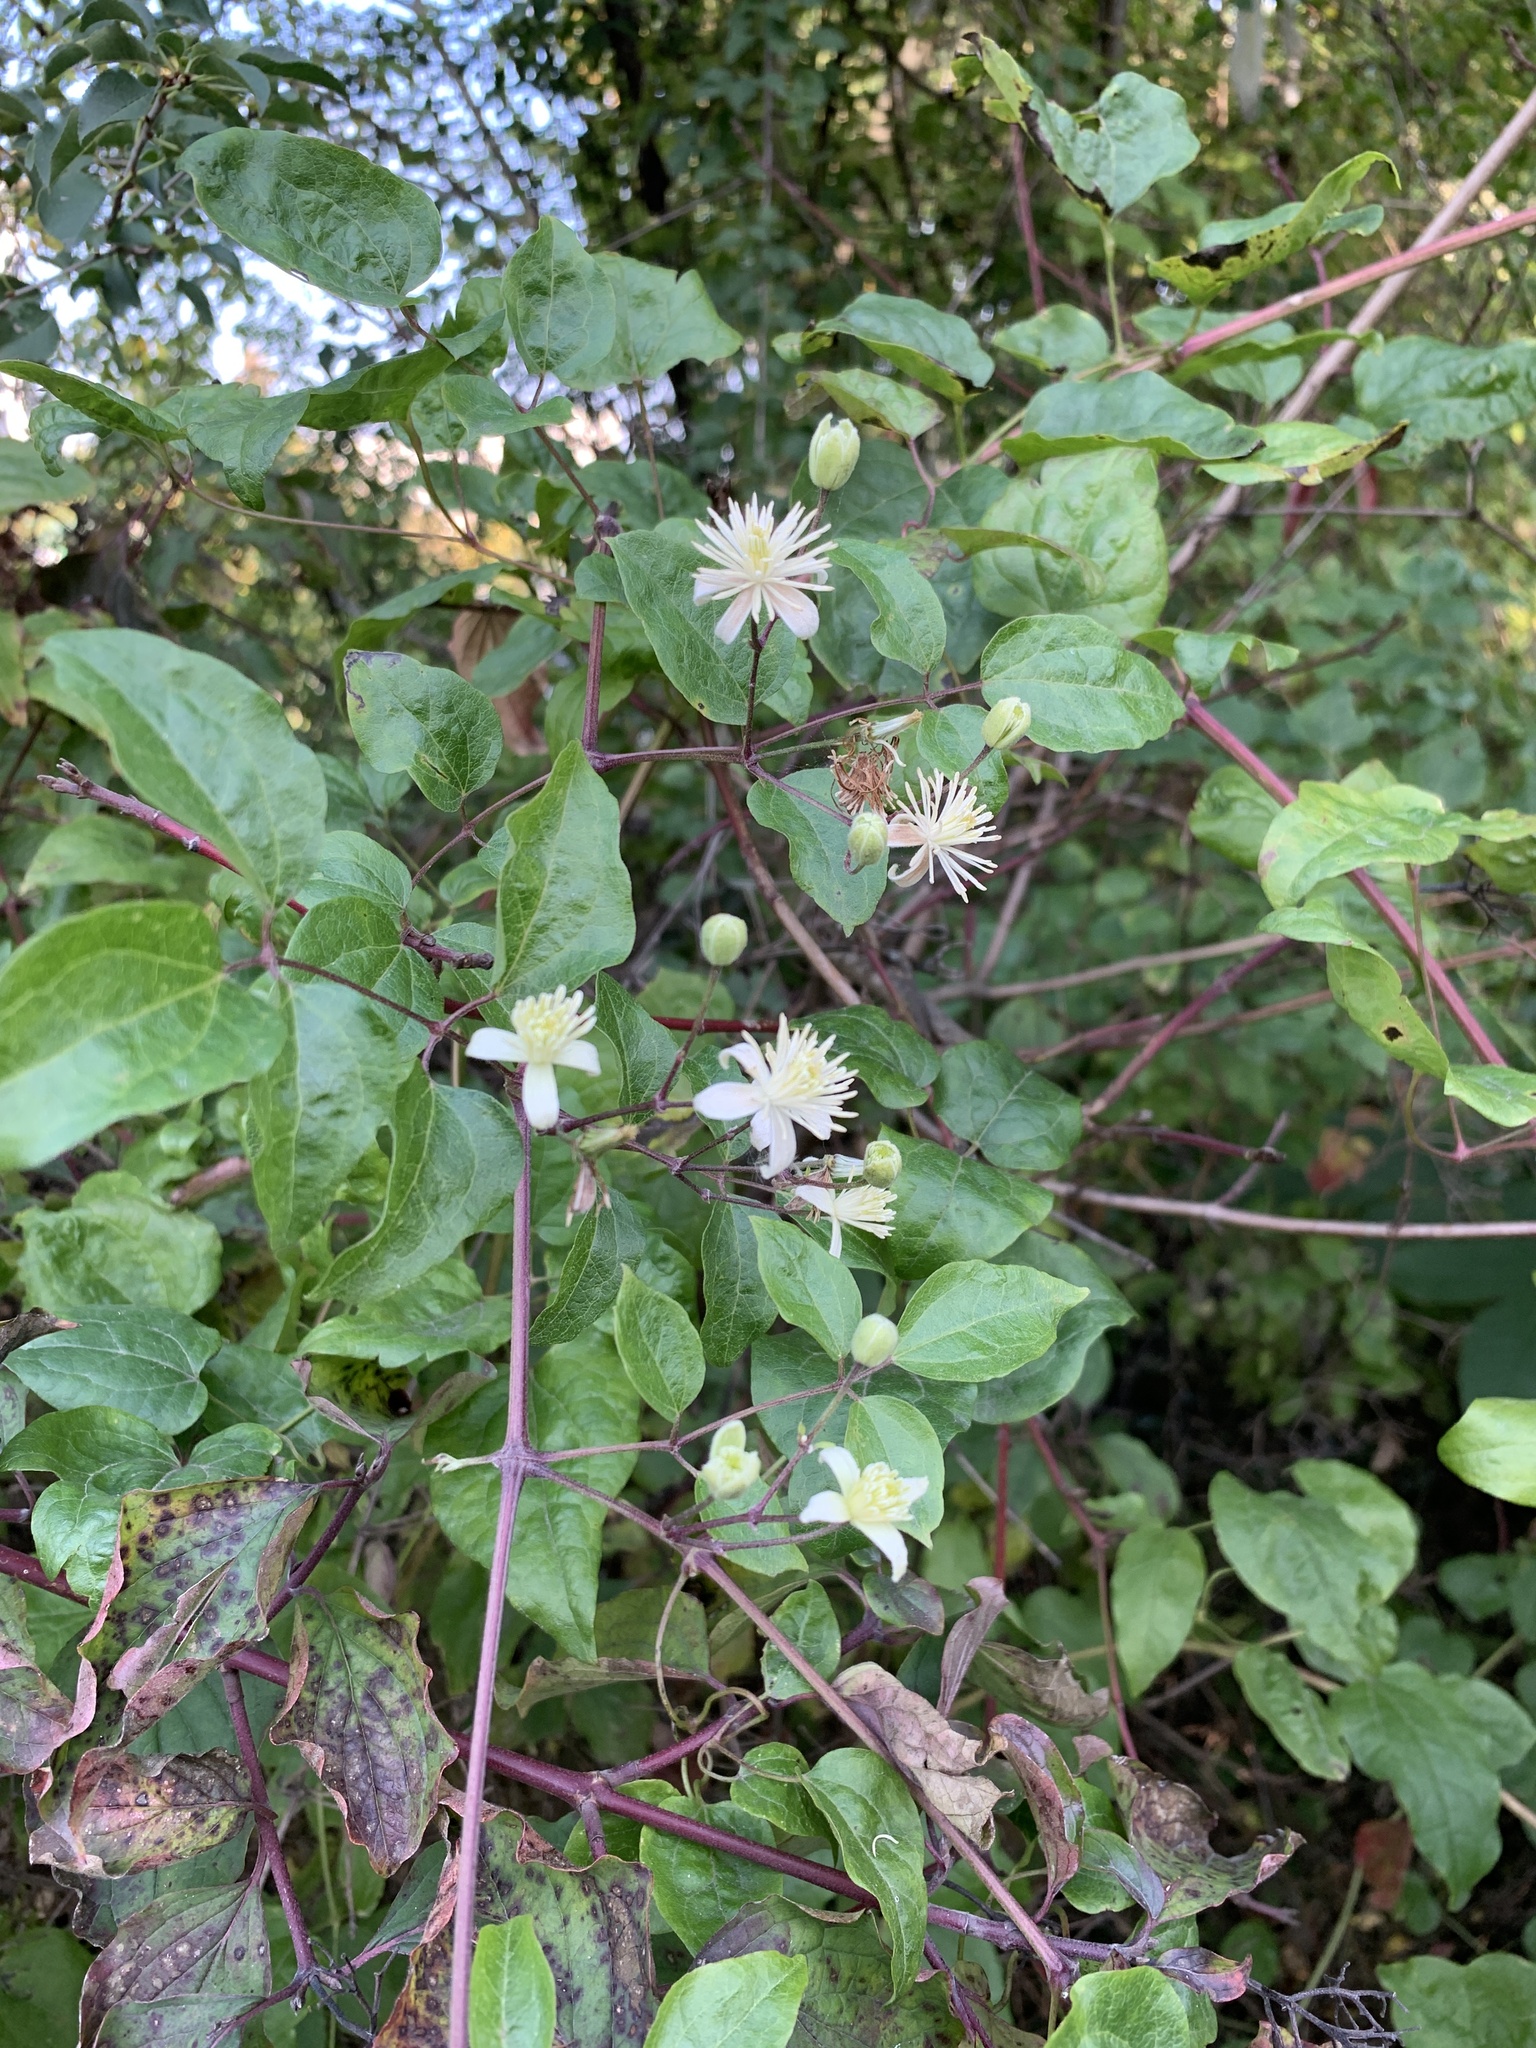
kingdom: Plantae
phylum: Tracheophyta
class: Magnoliopsida
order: Ranunculales
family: Ranunculaceae
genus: Clematis
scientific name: Clematis vitalba
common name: Evergreen clematis
